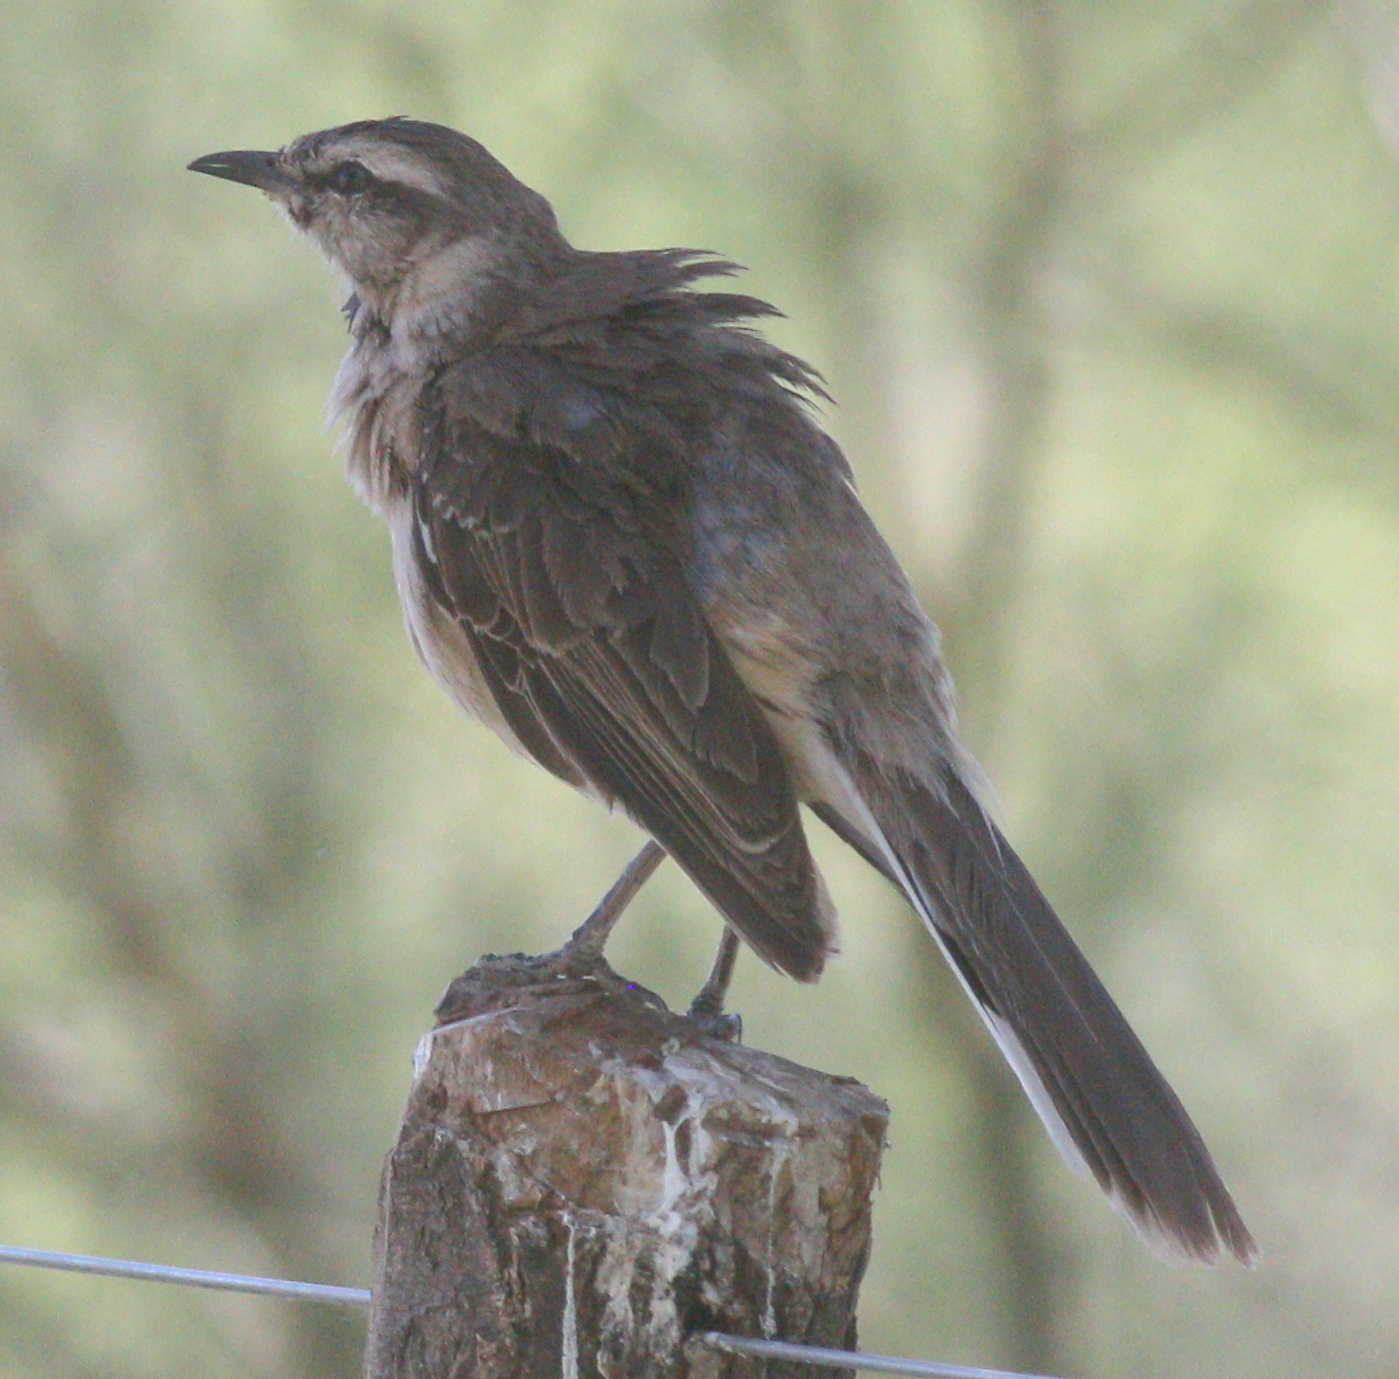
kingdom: Animalia
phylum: Chordata
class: Aves
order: Passeriformes
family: Mimidae
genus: Mimus
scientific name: Mimus saturninus
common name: Chalk-browed mockingbird
